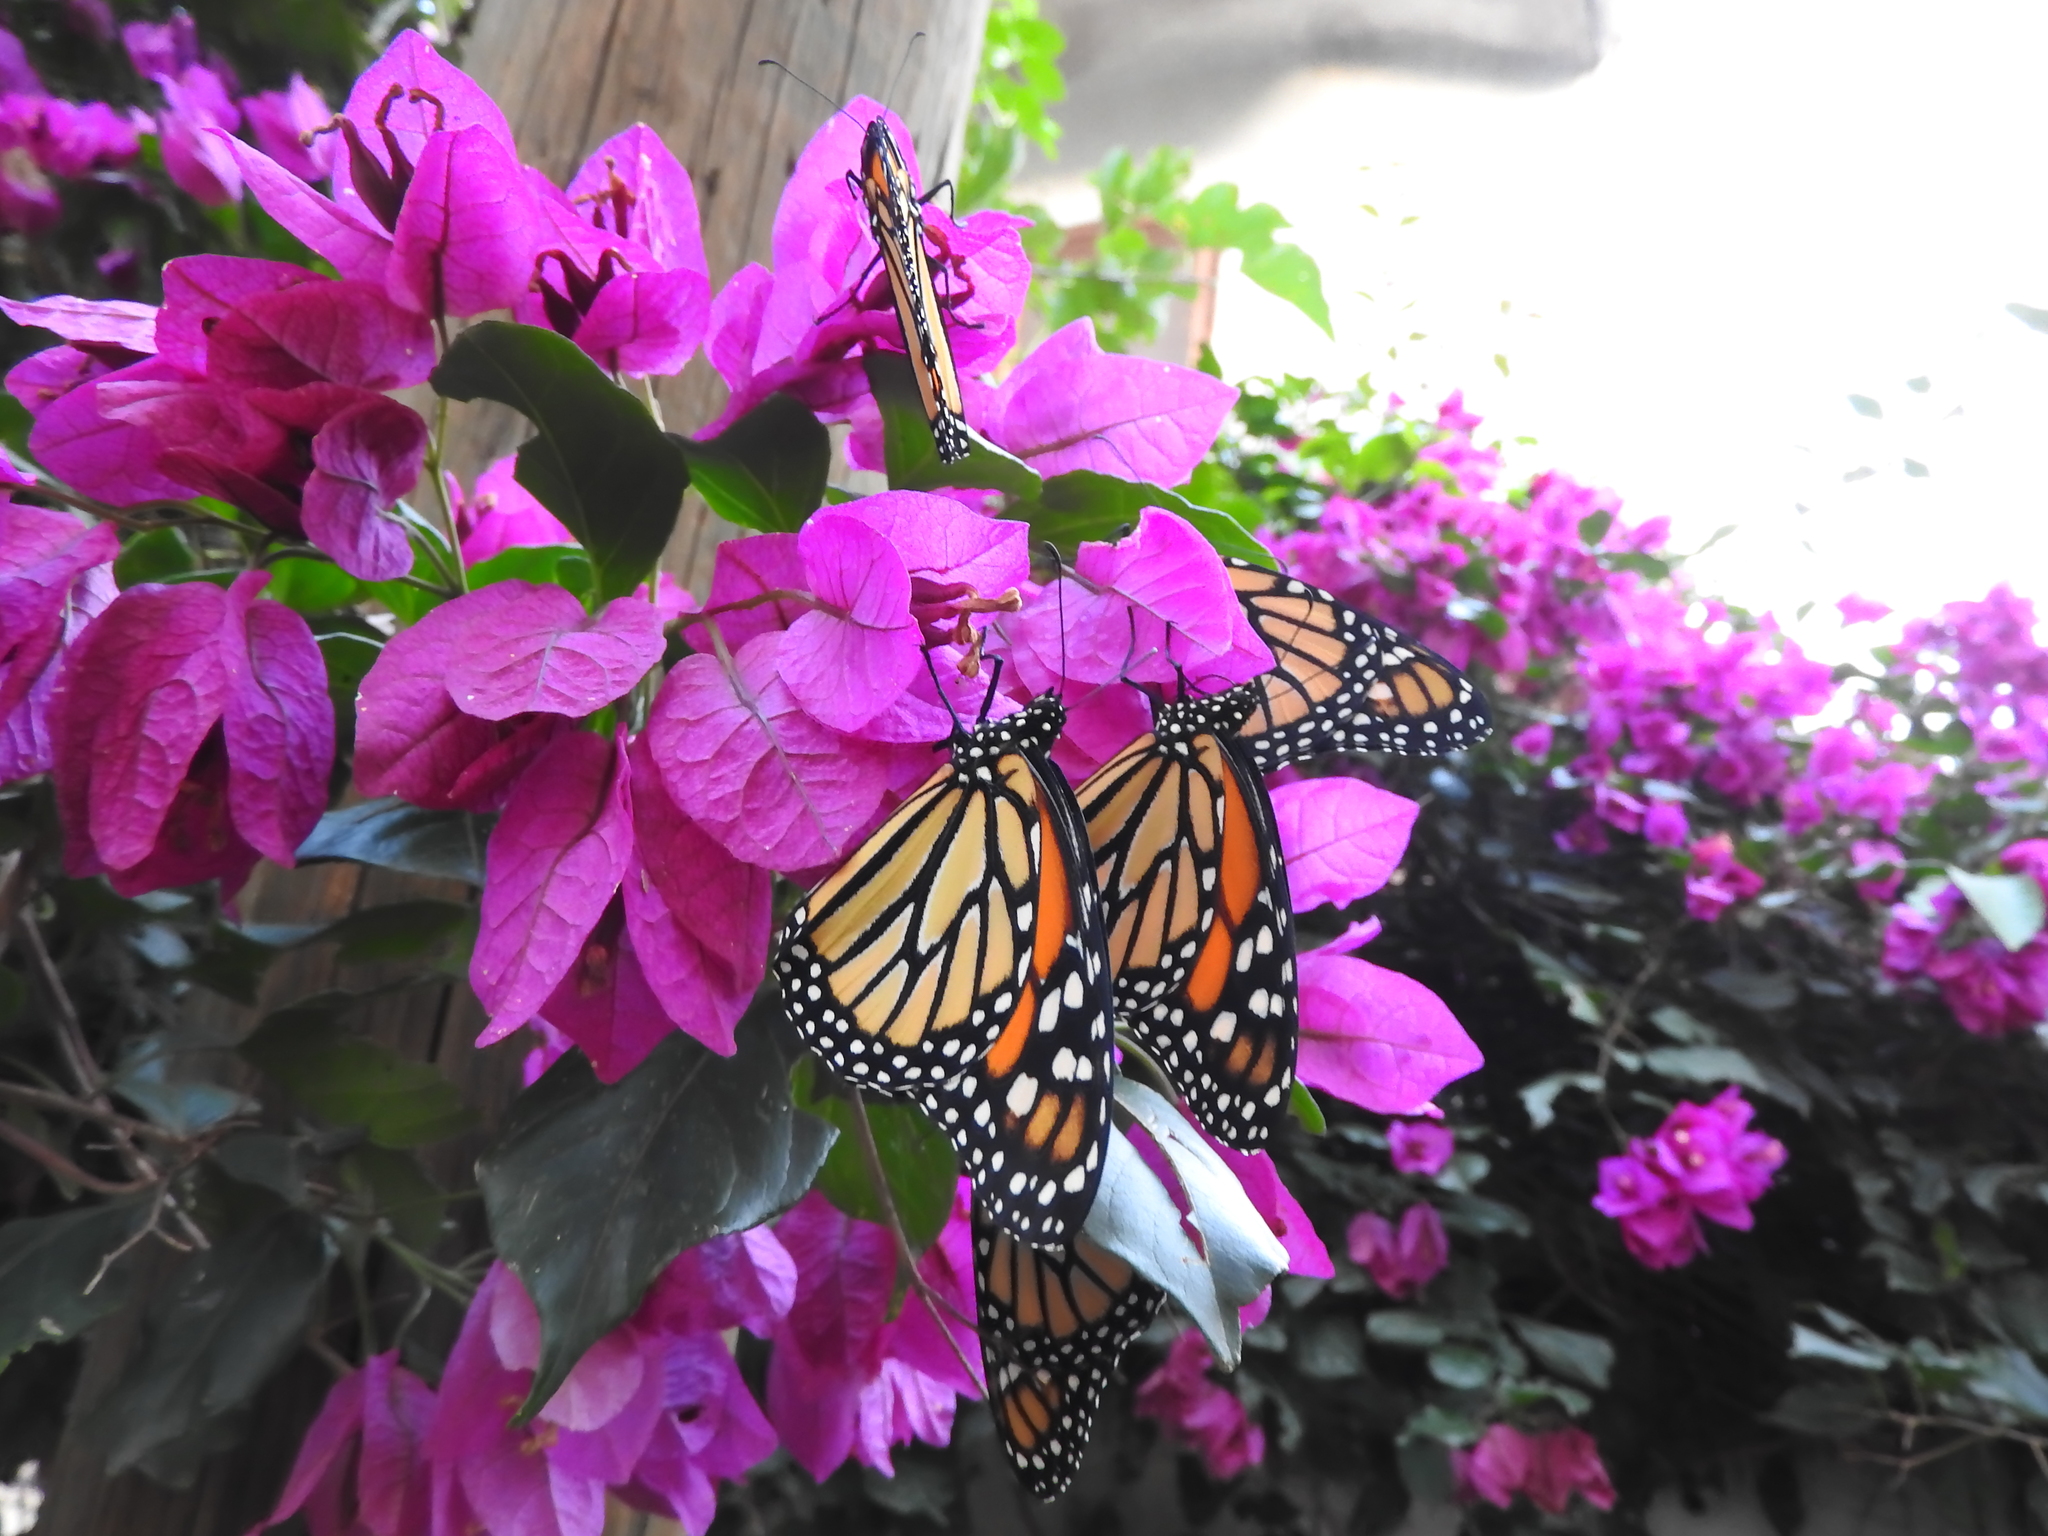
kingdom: Animalia
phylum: Arthropoda
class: Insecta
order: Lepidoptera
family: Nymphalidae
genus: Danaus
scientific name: Danaus plexippus
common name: Monarch
